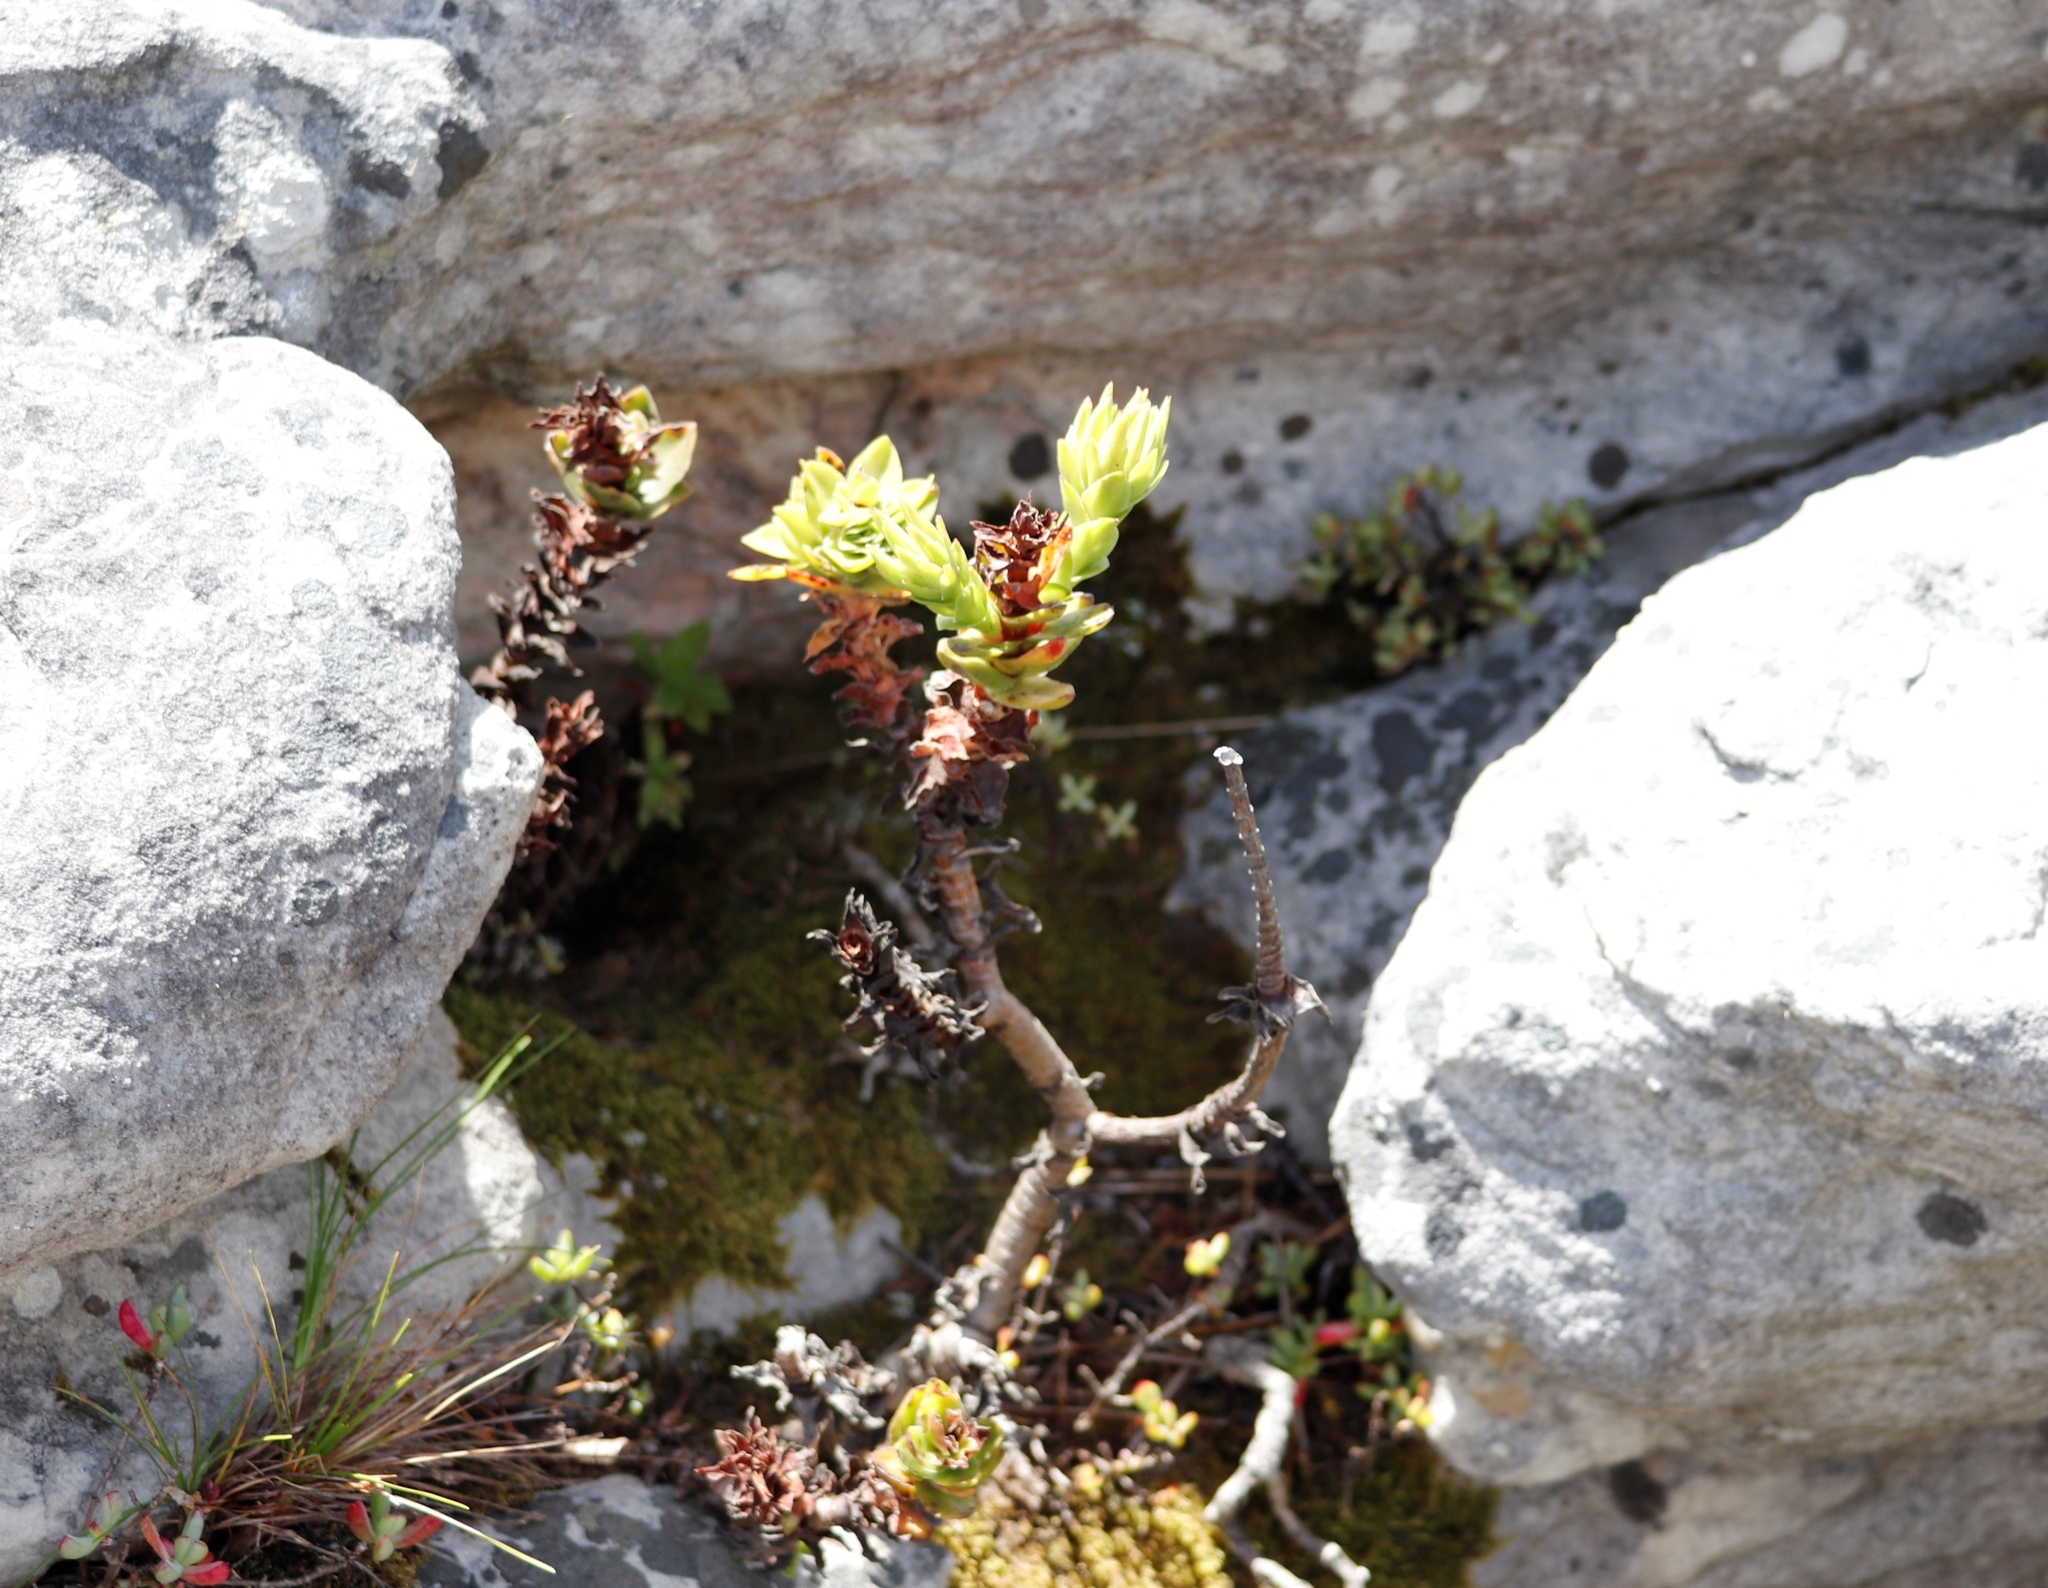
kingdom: Plantae
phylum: Tracheophyta
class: Magnoliopsida
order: Saxifragales
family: Crassulaceae
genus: Crassula
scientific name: Crassula coccinea
